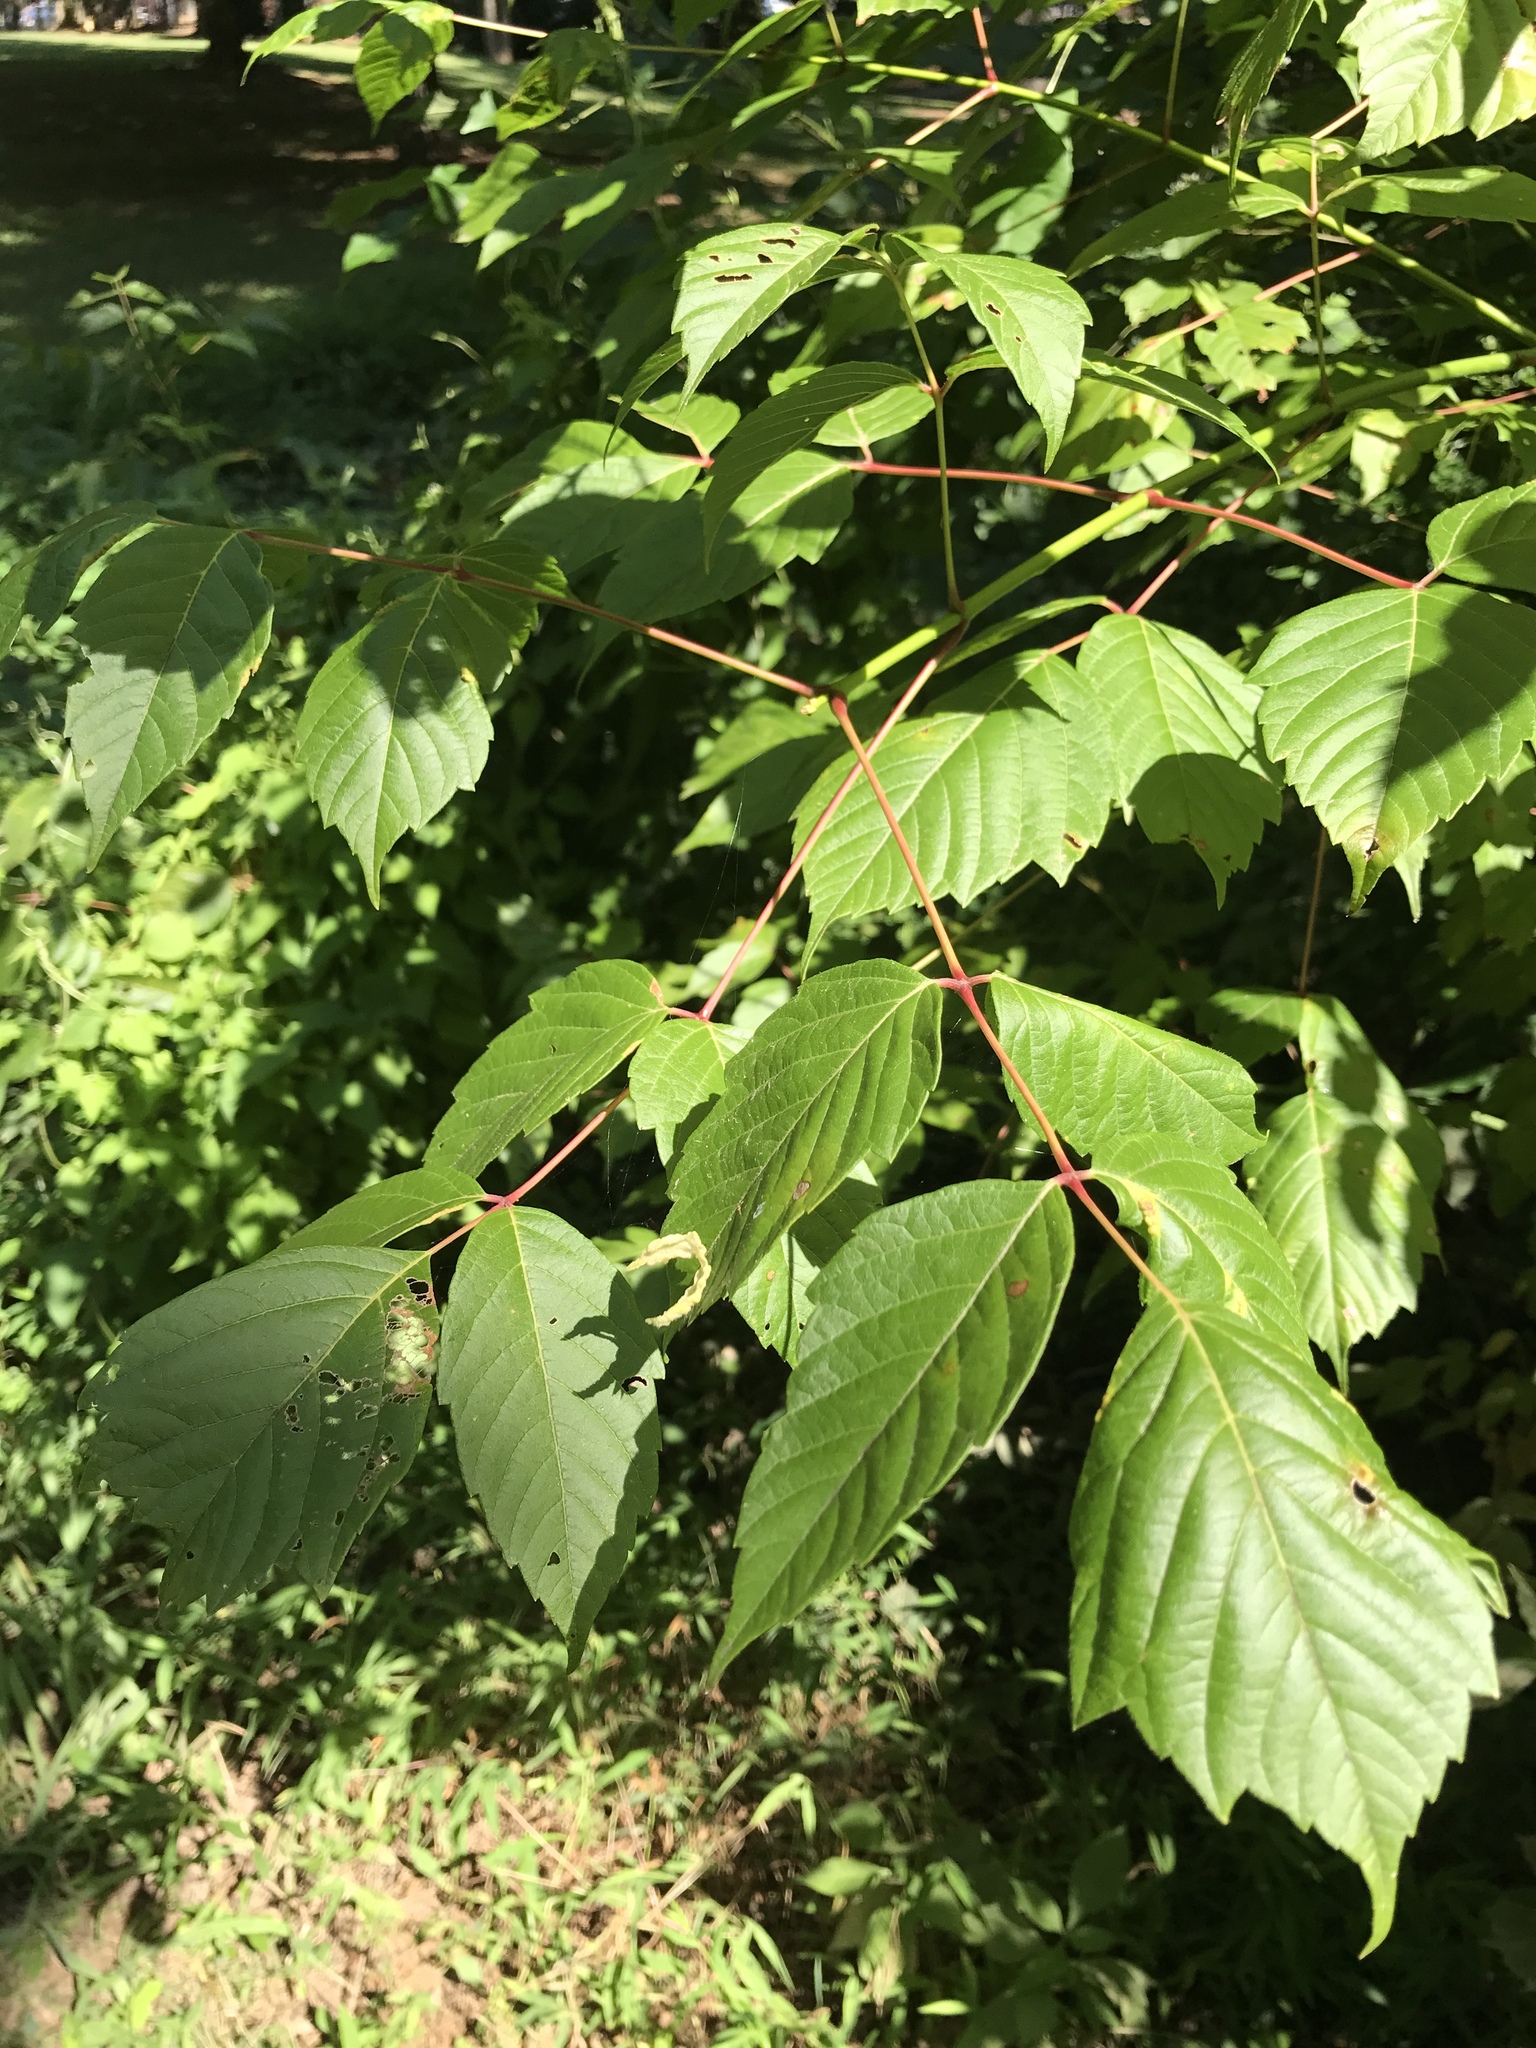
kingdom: Plantae
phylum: Tracheophyta
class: Magnoliopsida
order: Sapindales
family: Sapindaceae
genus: Acer
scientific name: Acer negundo
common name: Ashleaf maple
